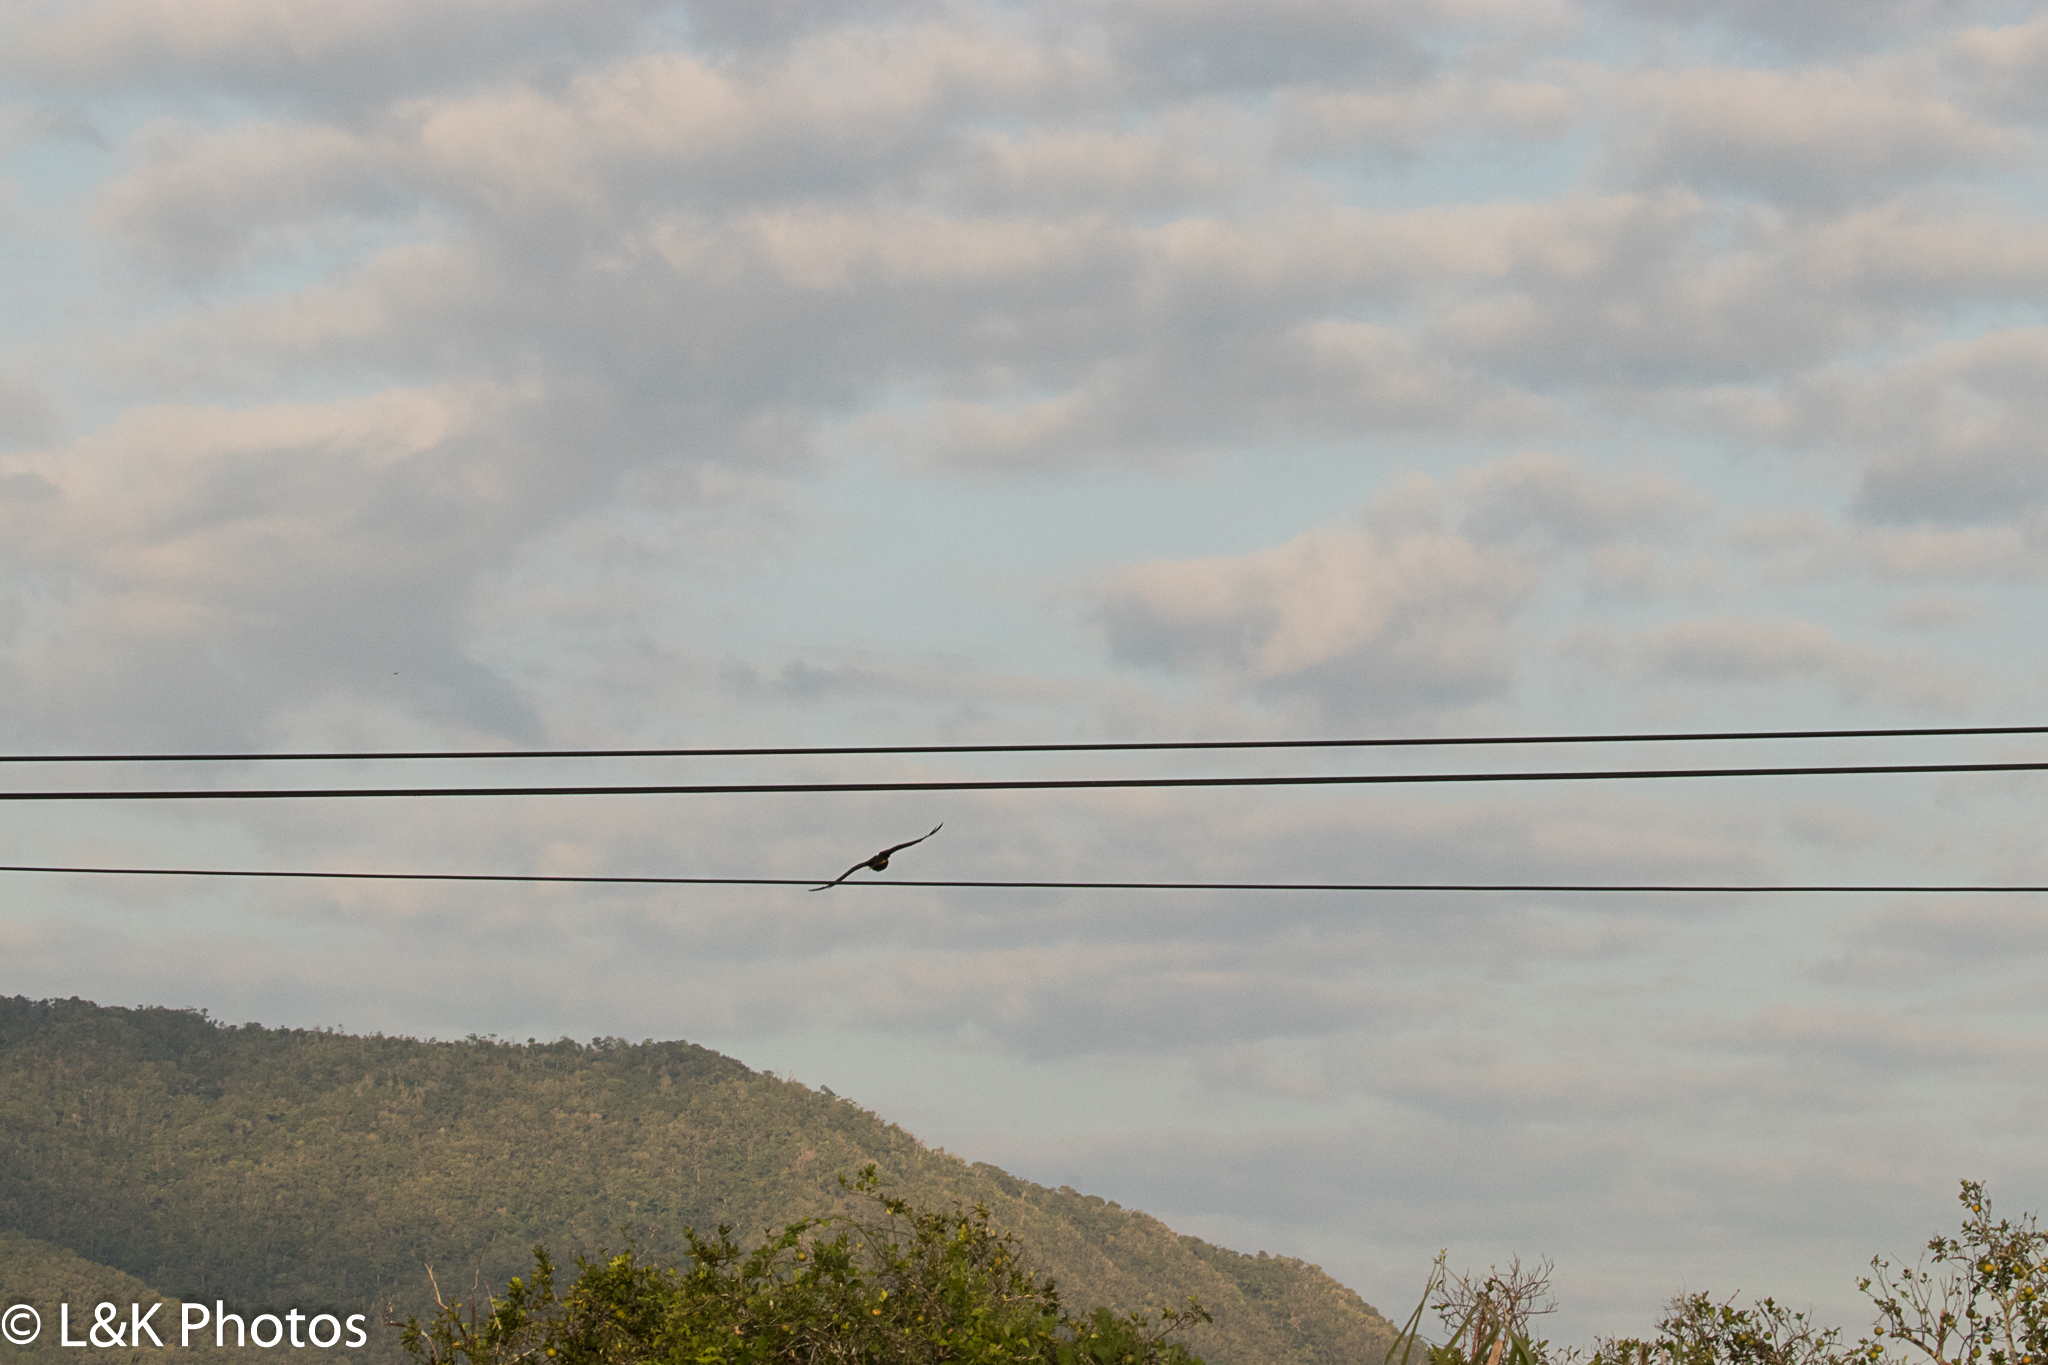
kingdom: Animalia
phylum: Chordata
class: Aves
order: Passeriformes
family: Icteridae
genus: Psarocolius
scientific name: Psarocolius montezuma
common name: Montezuma oropendola
